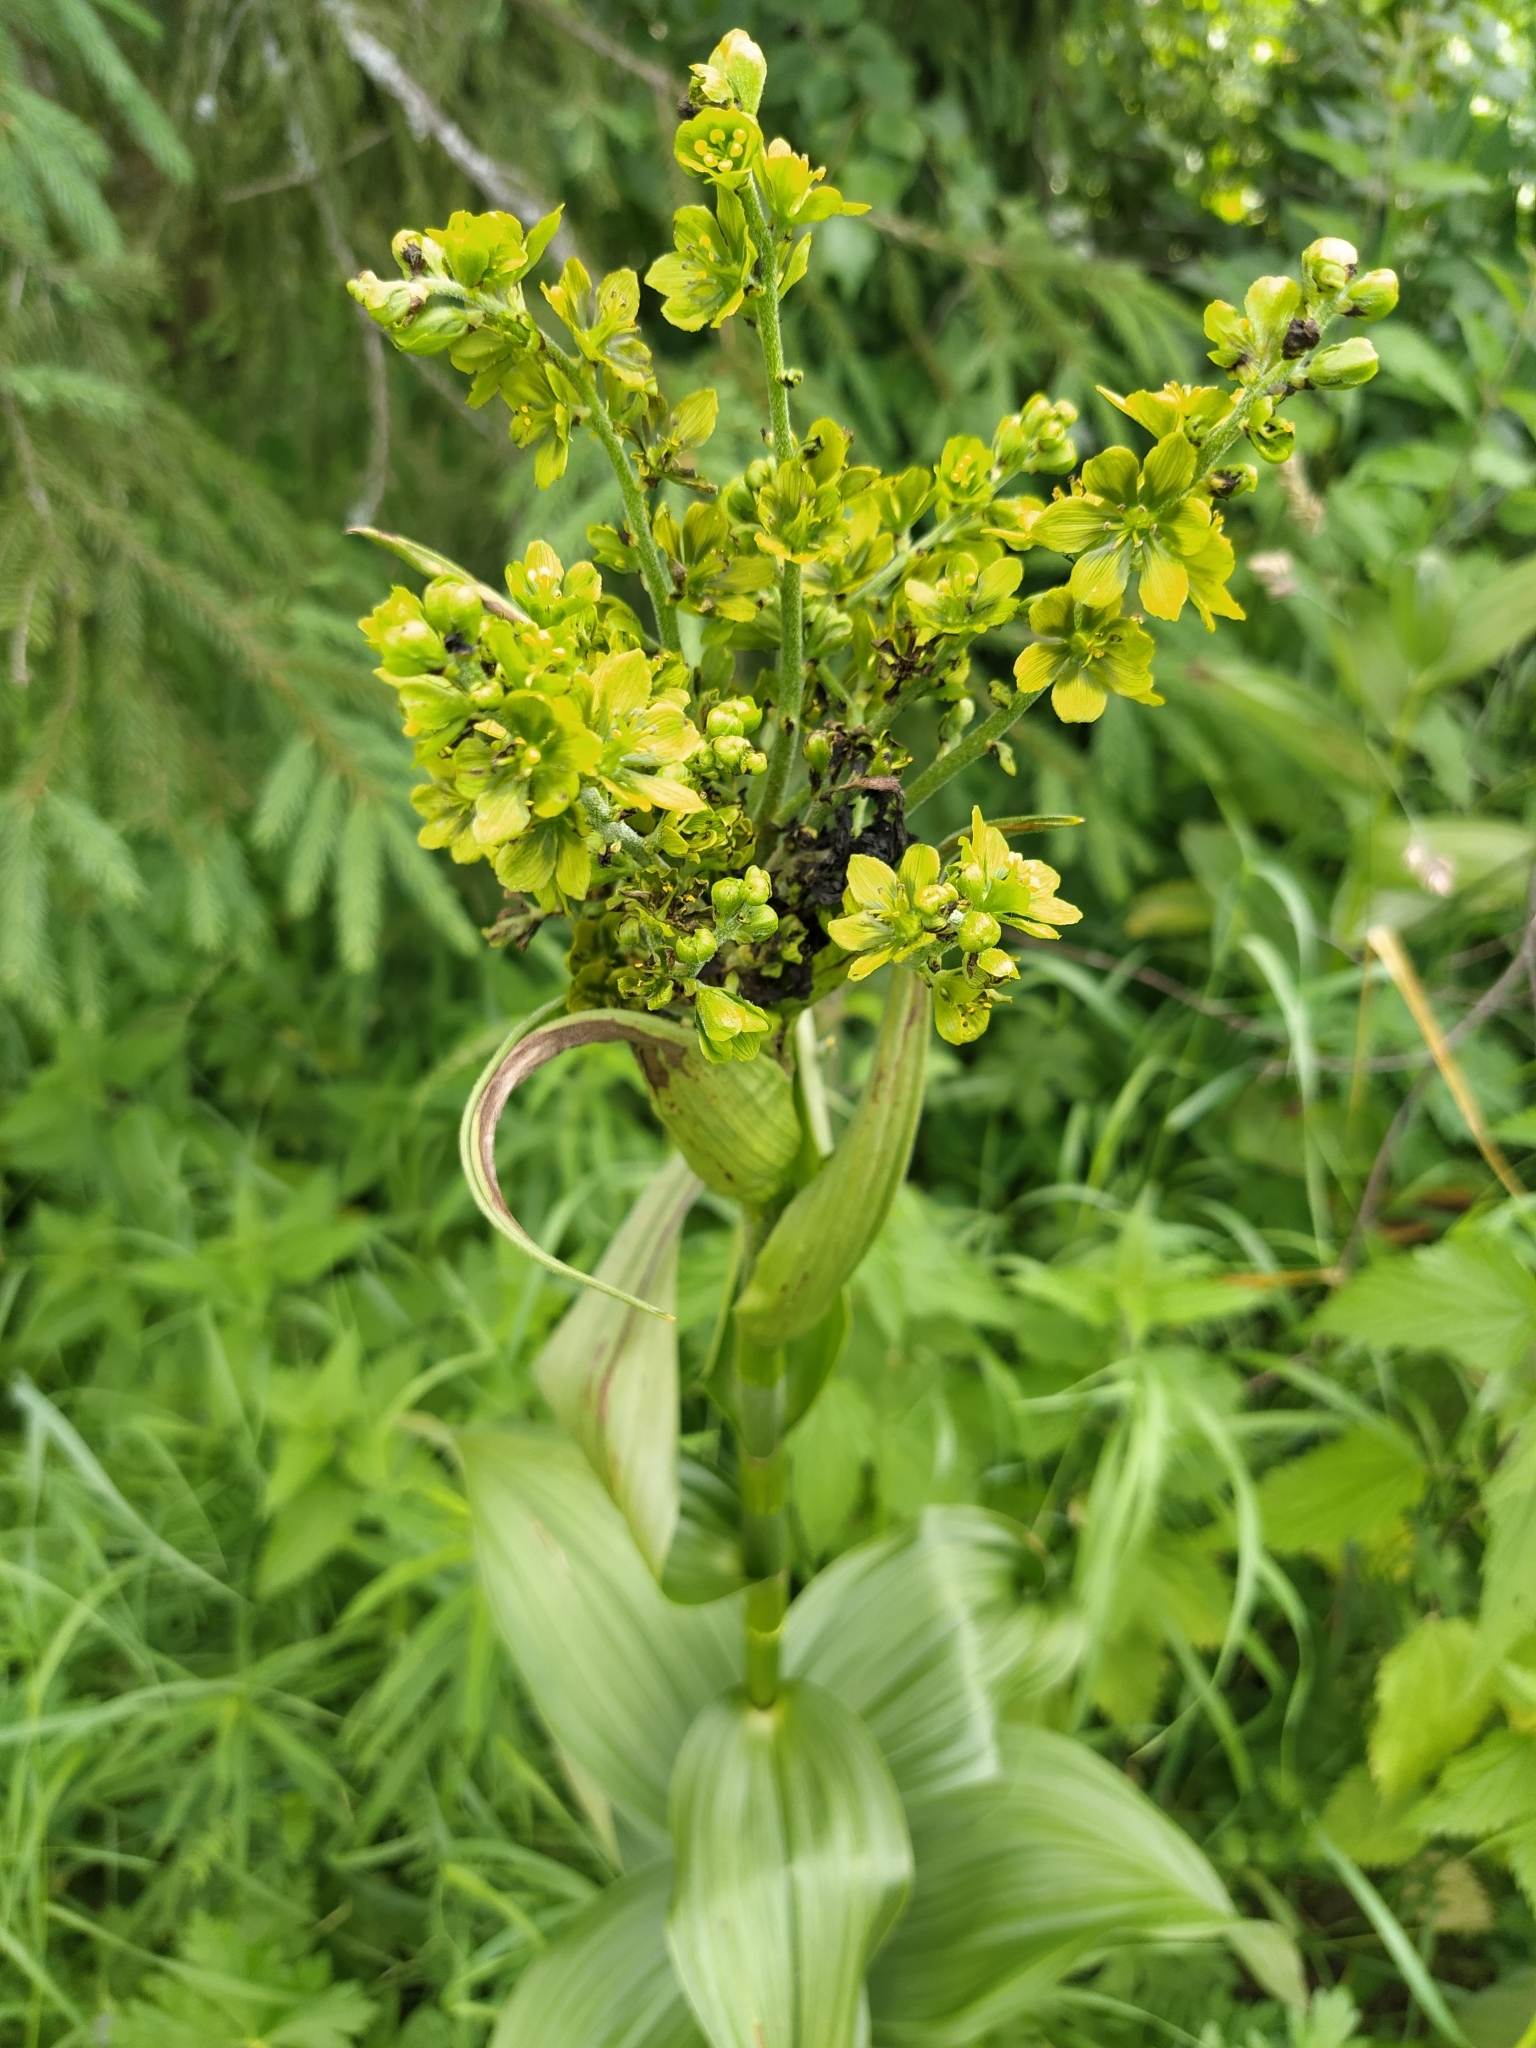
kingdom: Plantae
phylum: Tracheophyta
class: Liliopsida
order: Liliales
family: Melanthiaceae
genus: Veratrum
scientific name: Veratrum lobelianum
